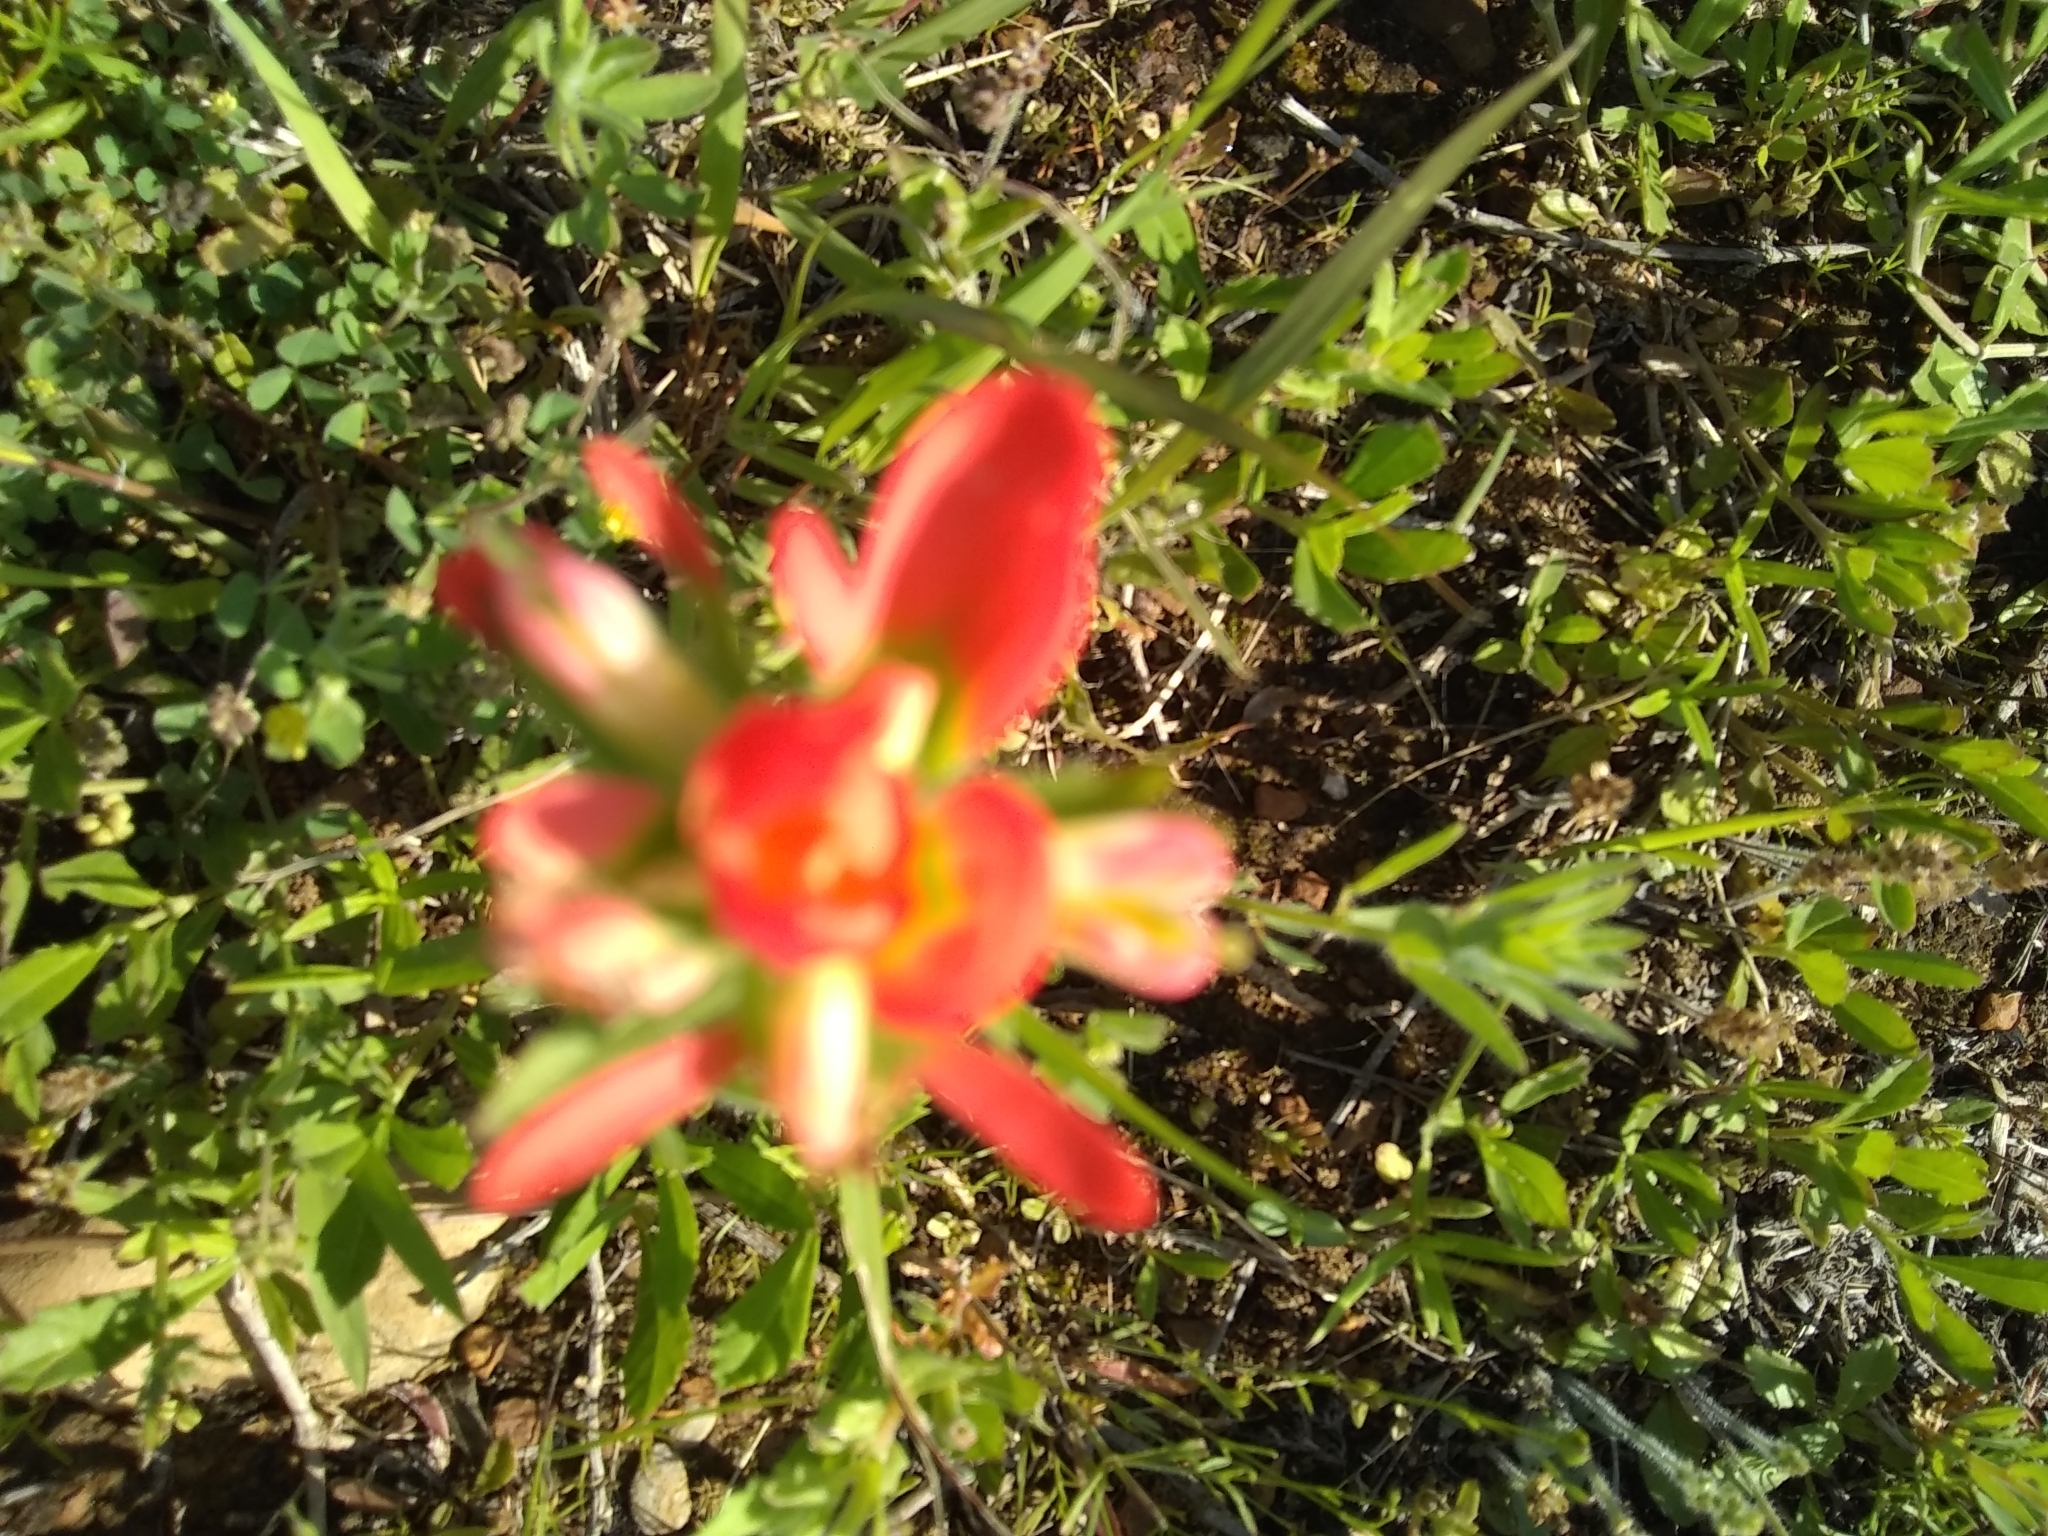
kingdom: Plantae
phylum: Tracheophyta
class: Magnoliopsida
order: Lamiales
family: Orobanchaceae
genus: Castilleja
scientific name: Castilleja indivisa
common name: Texas paintbrush
